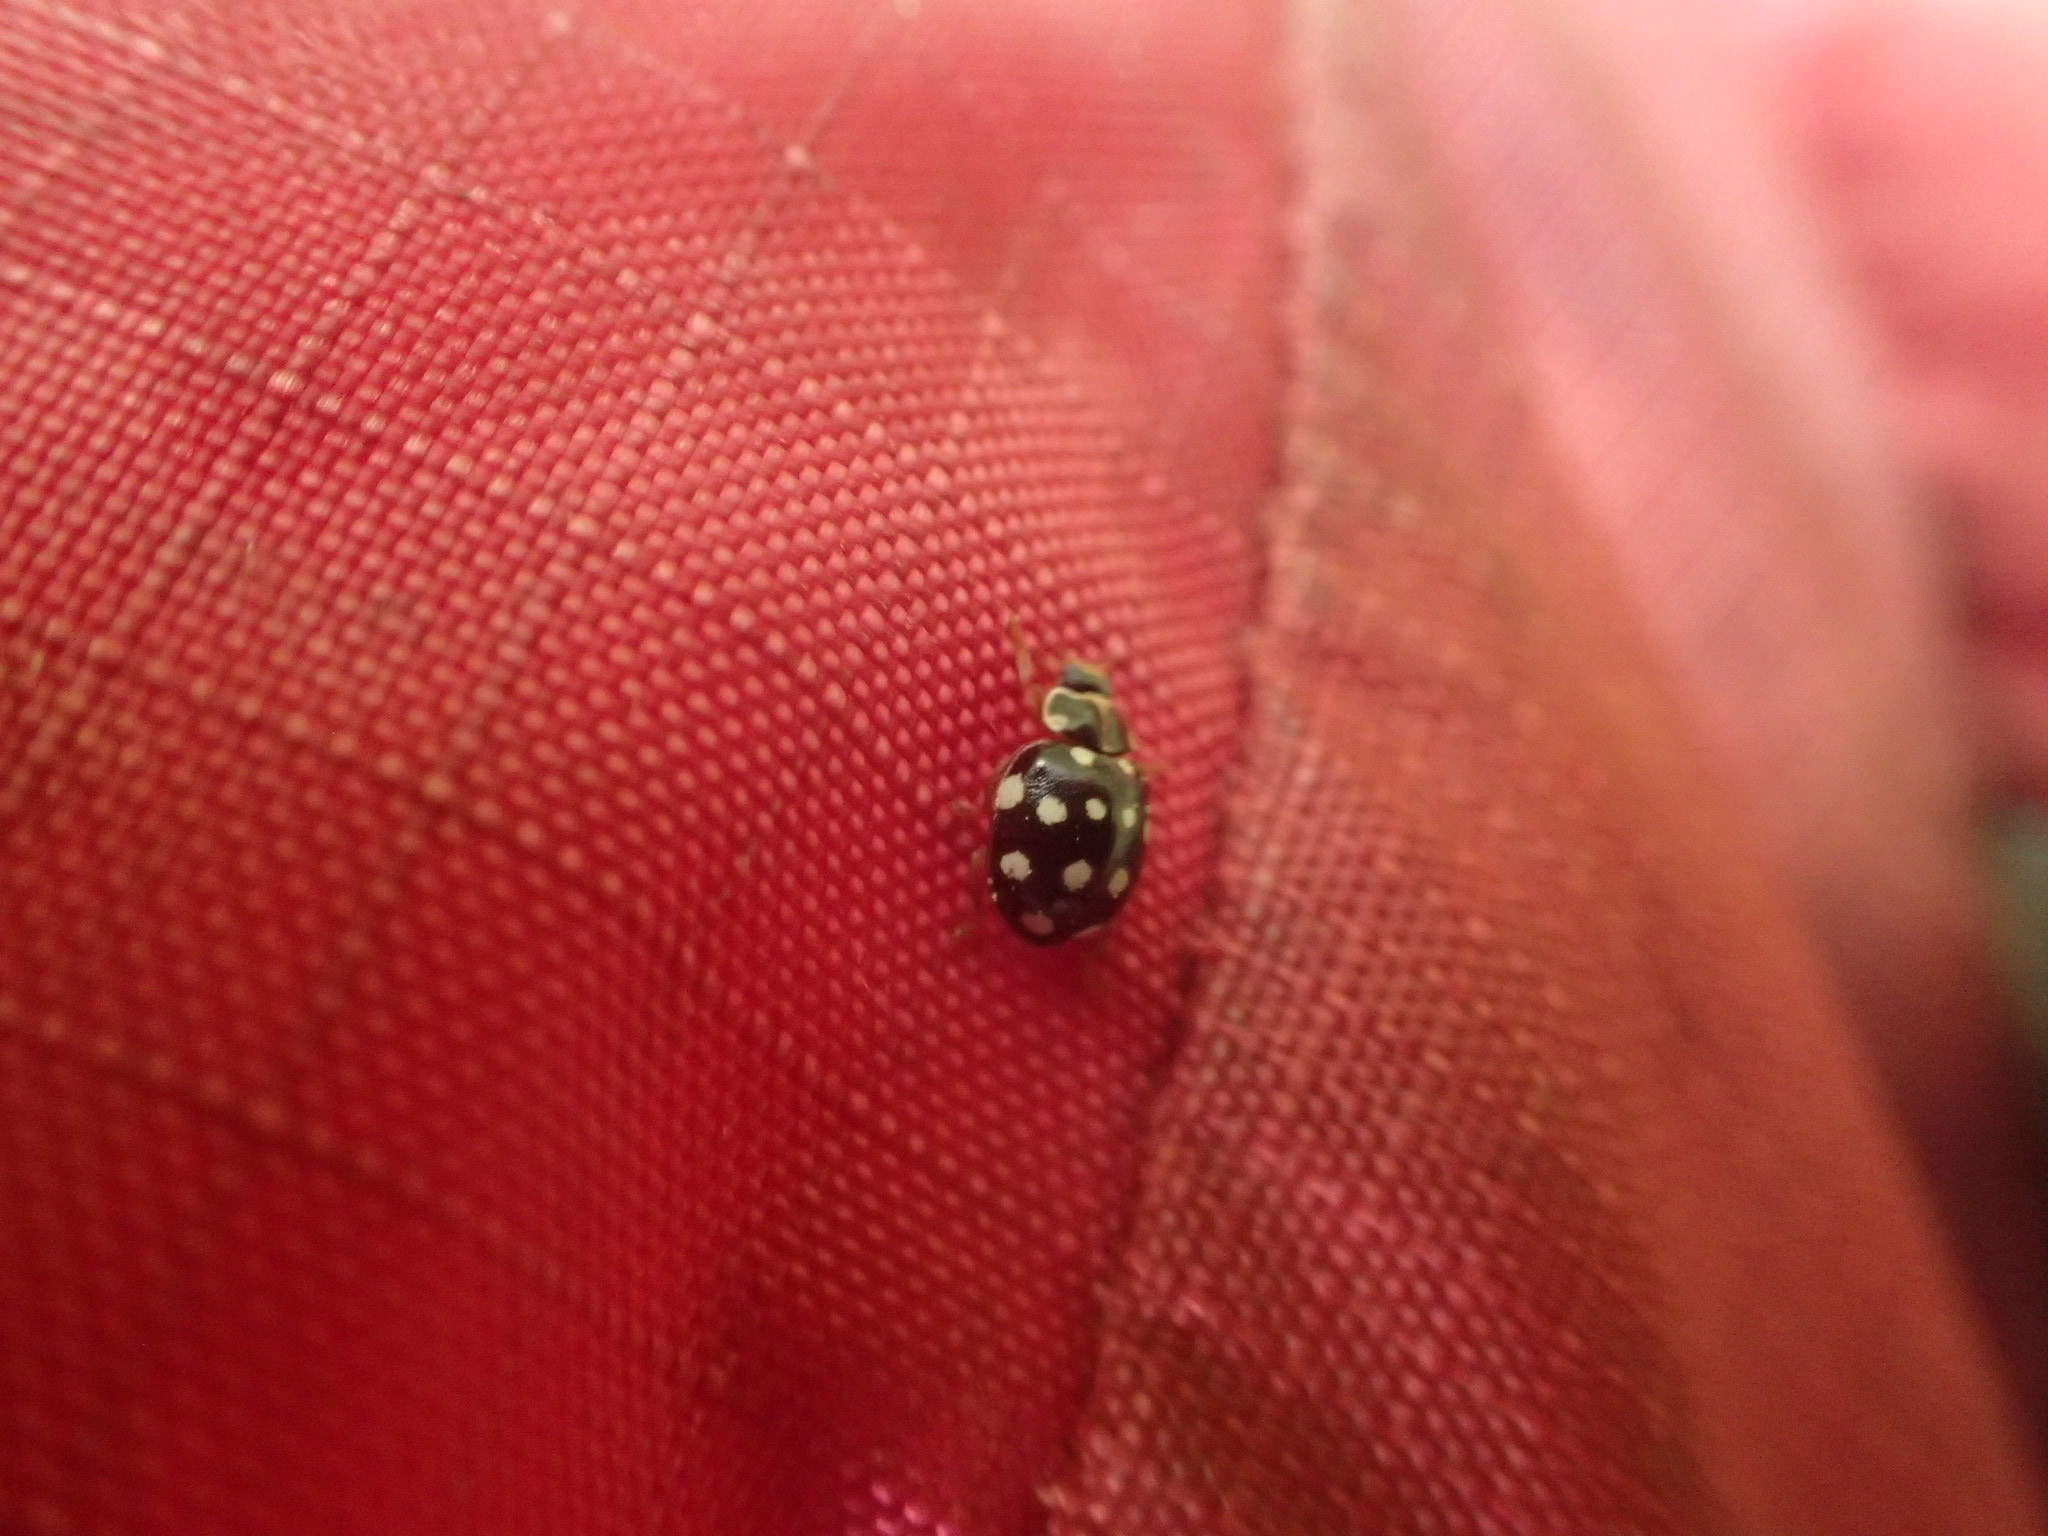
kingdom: Animalia
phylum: Arthropoda
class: Insecta
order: Coleoptera
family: Coccinellidae
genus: Calvia
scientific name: Calvia quatuordecimguttata
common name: Cream-spot ladybird
